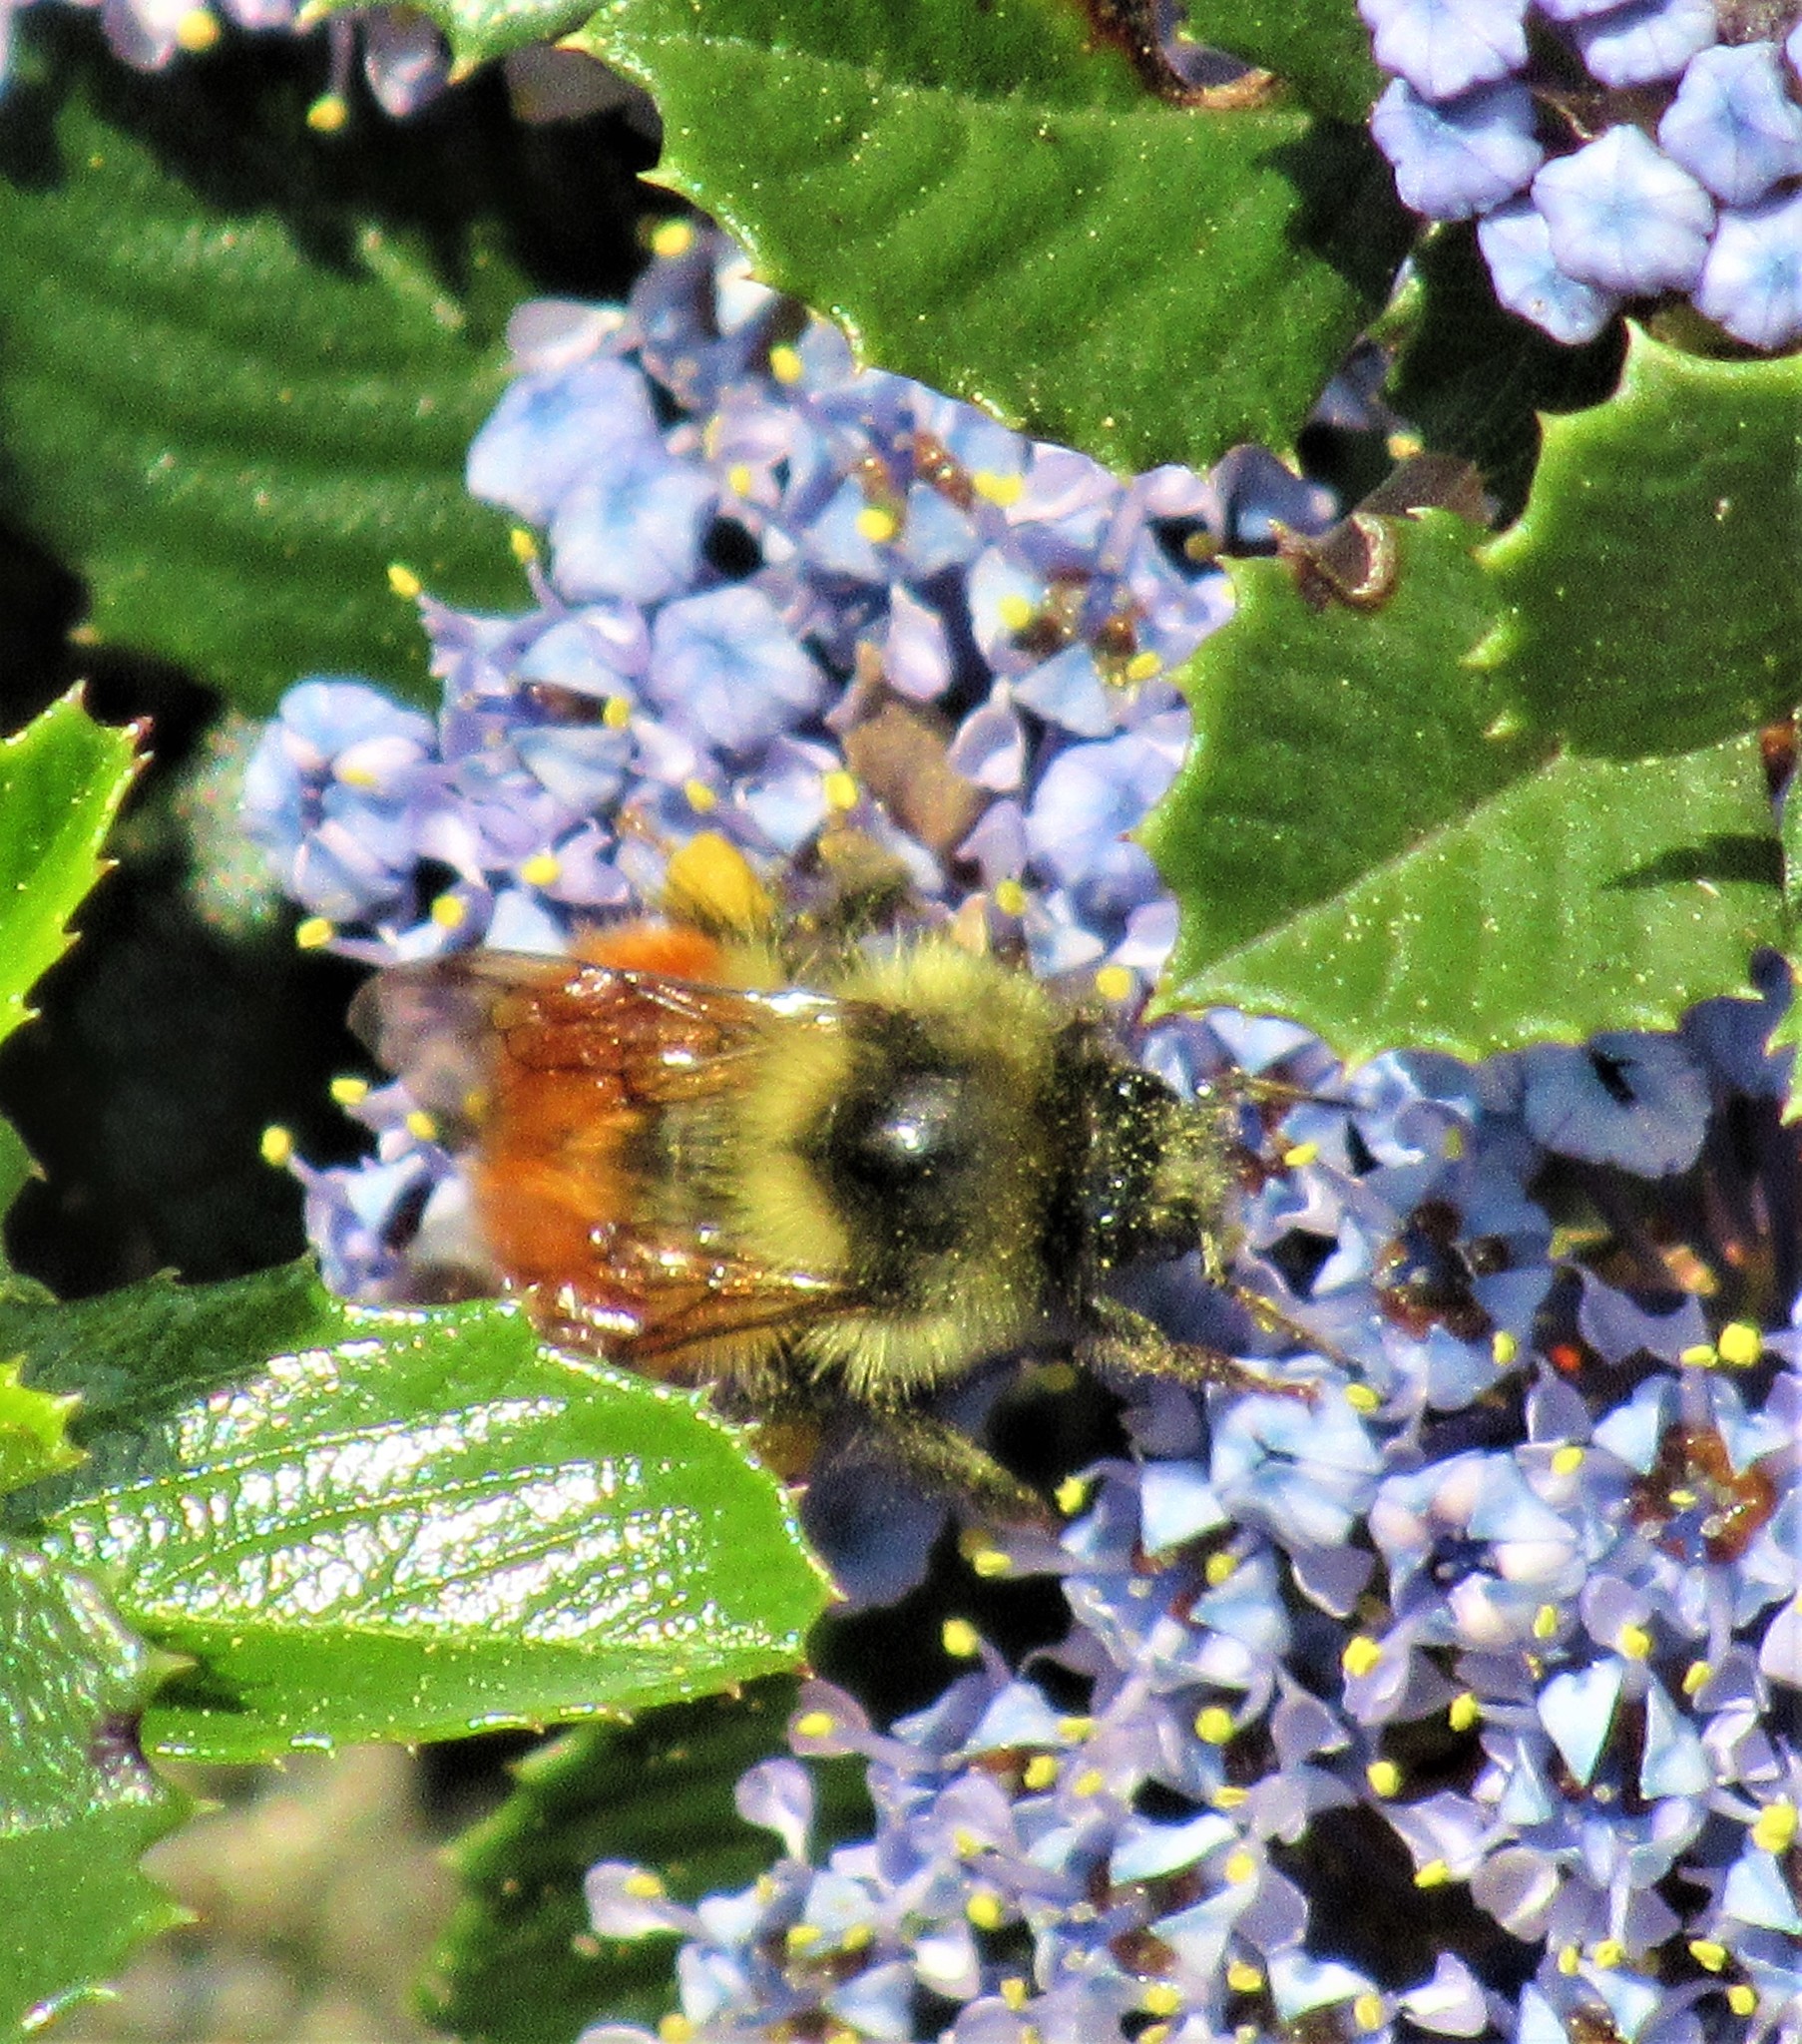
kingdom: Animalia
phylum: Arthropoda
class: Insecta
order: Hymenoptera
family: Apidae
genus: Bombus
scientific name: Bombus melanopygus
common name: Black tail bumble bee
